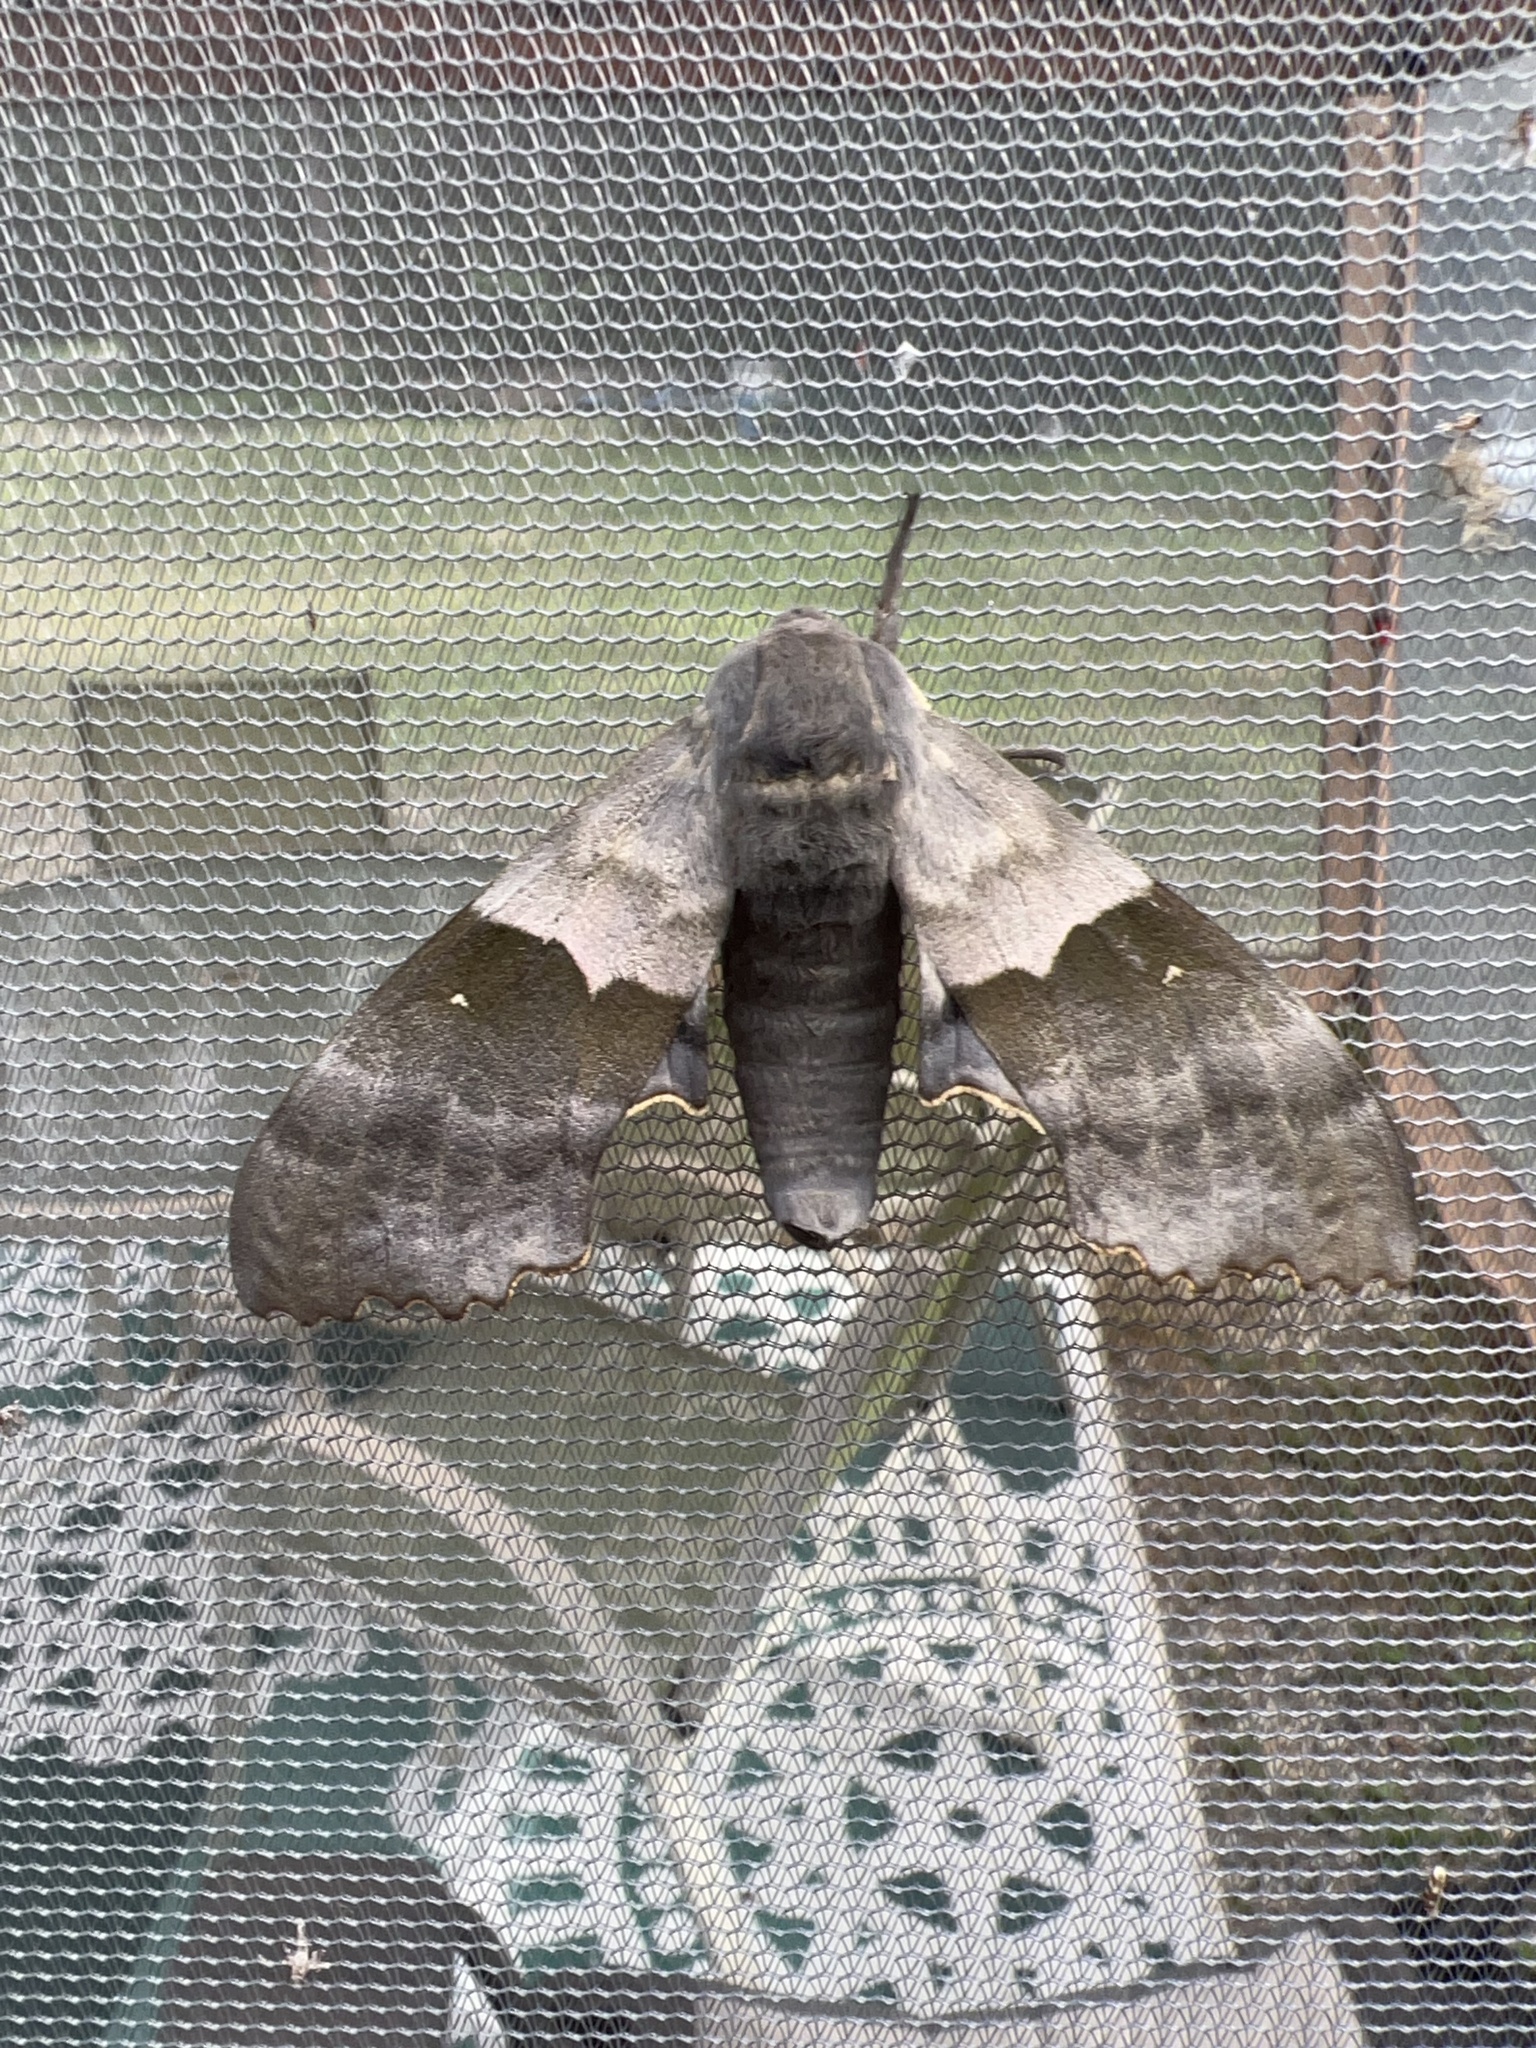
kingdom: Animalia
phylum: Arthropoda
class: Insecta
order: Lepidoptera
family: Sphingidae
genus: Pachysphinx
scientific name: Pachysphinx modesta
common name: Big poplar sphinx
